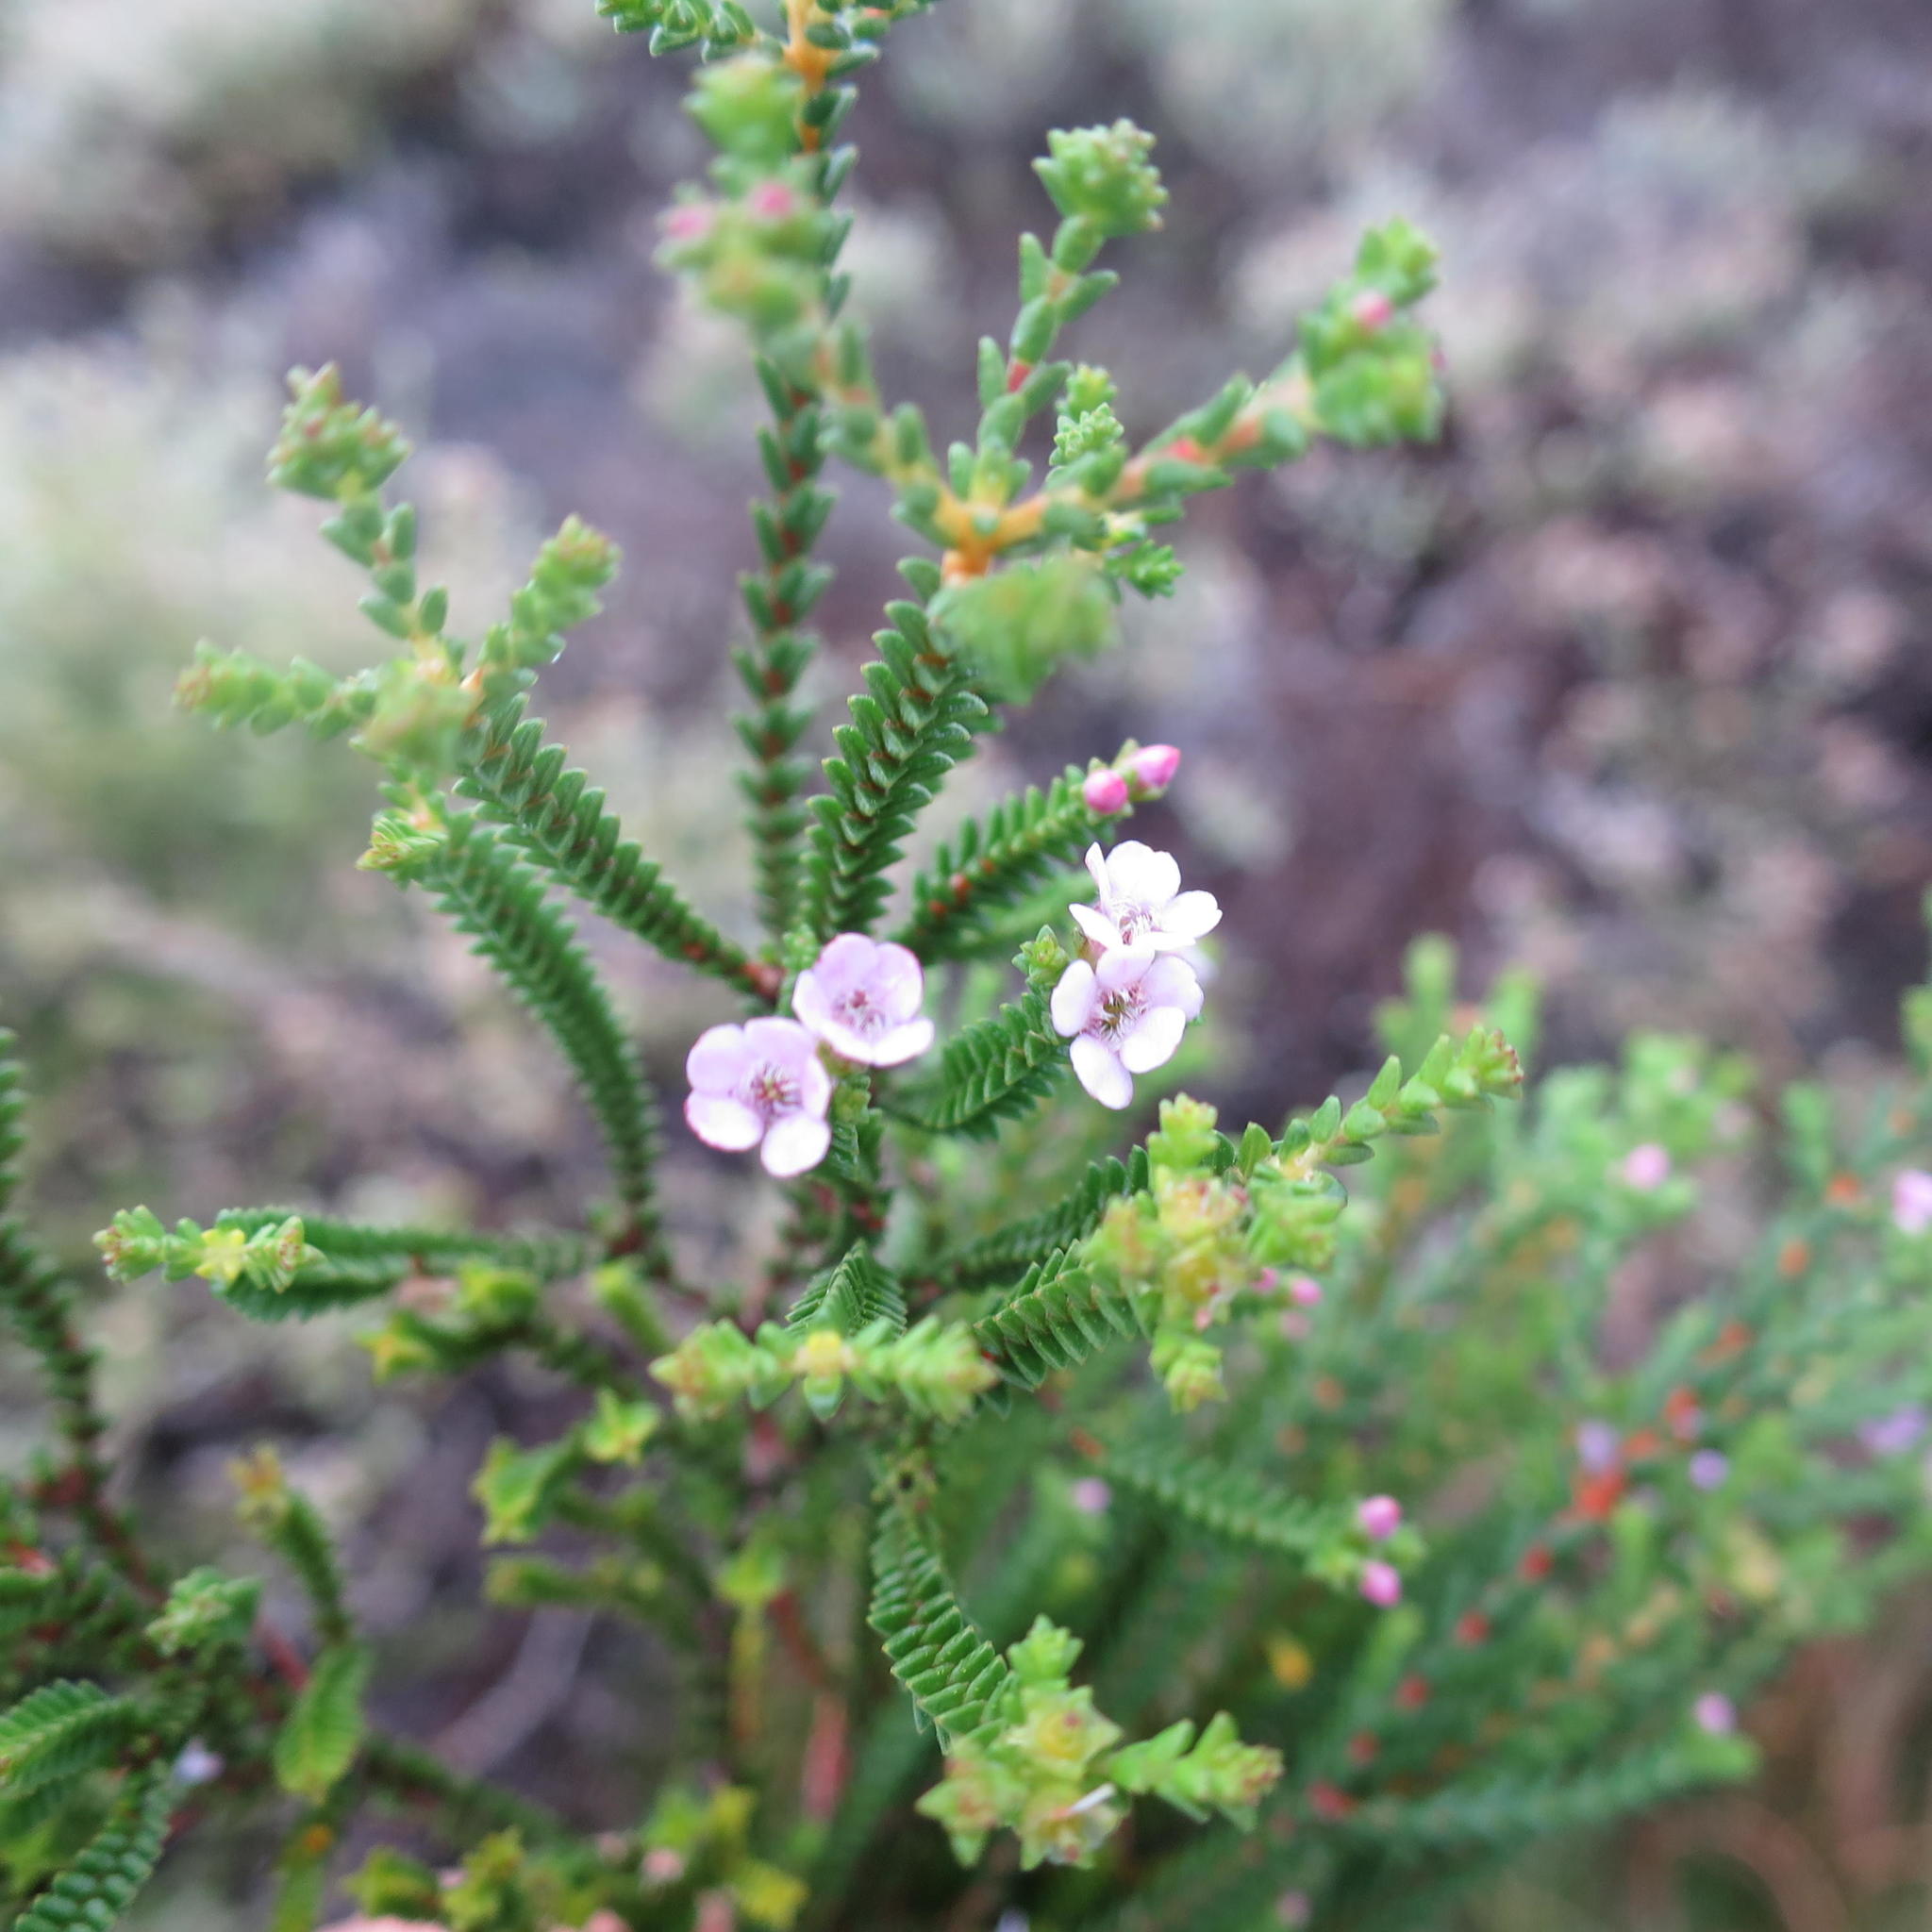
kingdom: Plantae
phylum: Tracheophyta
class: Magnoliopsida
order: Sapindales
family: Rutaceae
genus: Euchaetis
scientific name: Euchaetis albertiniana
